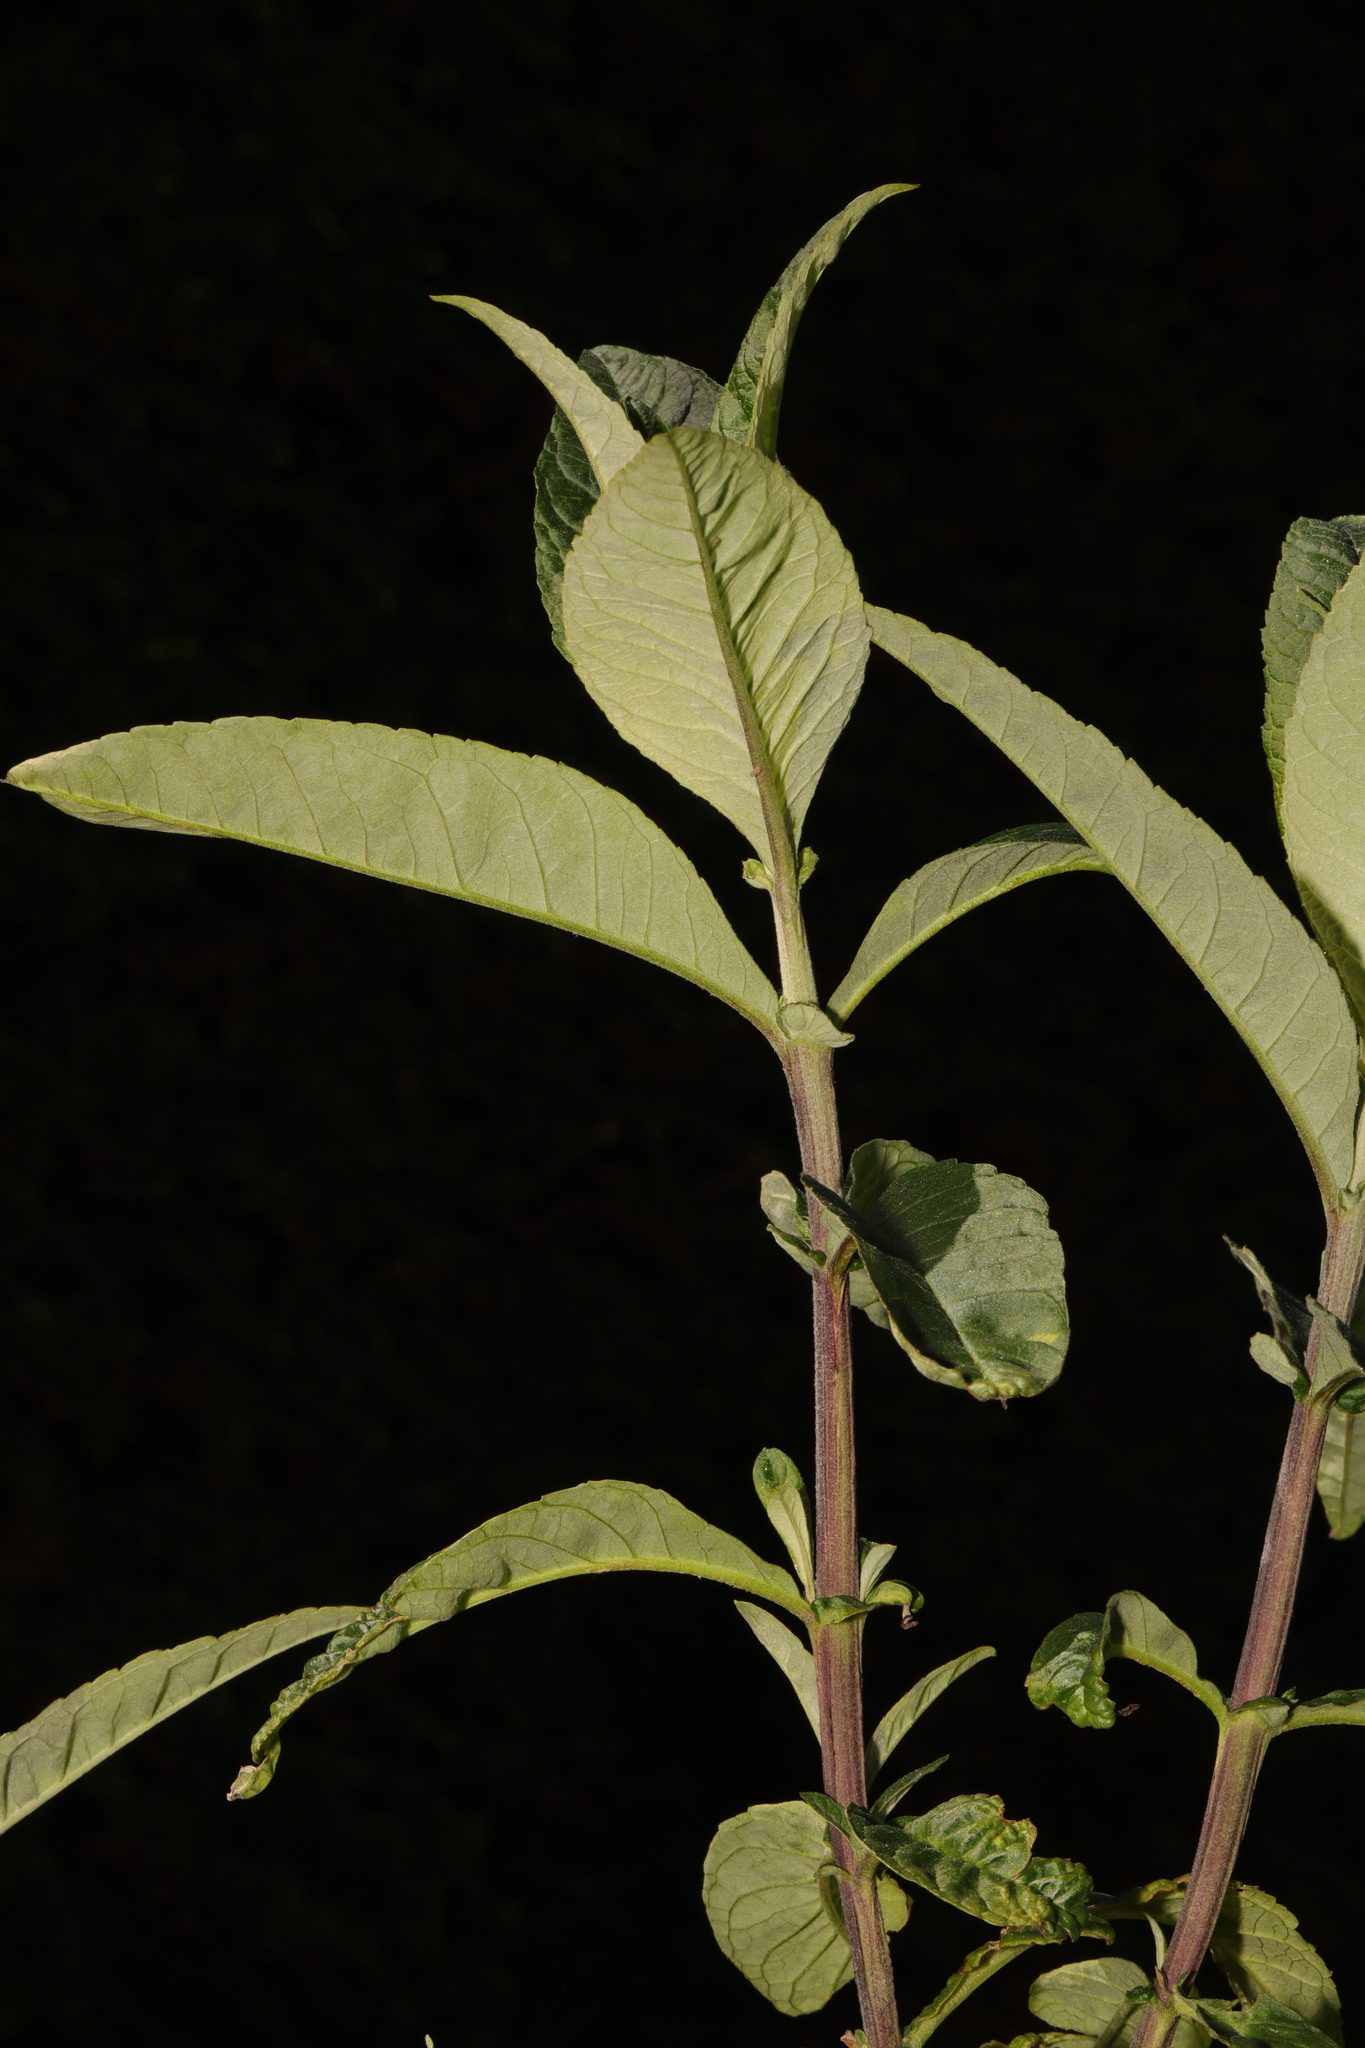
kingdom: Plantae
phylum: Tracheophyta
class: Magnoliopsida
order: Lamiales
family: Scrophulariaceae
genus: Buddleja
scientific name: Buddleja davidii
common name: Butterfly-bush
